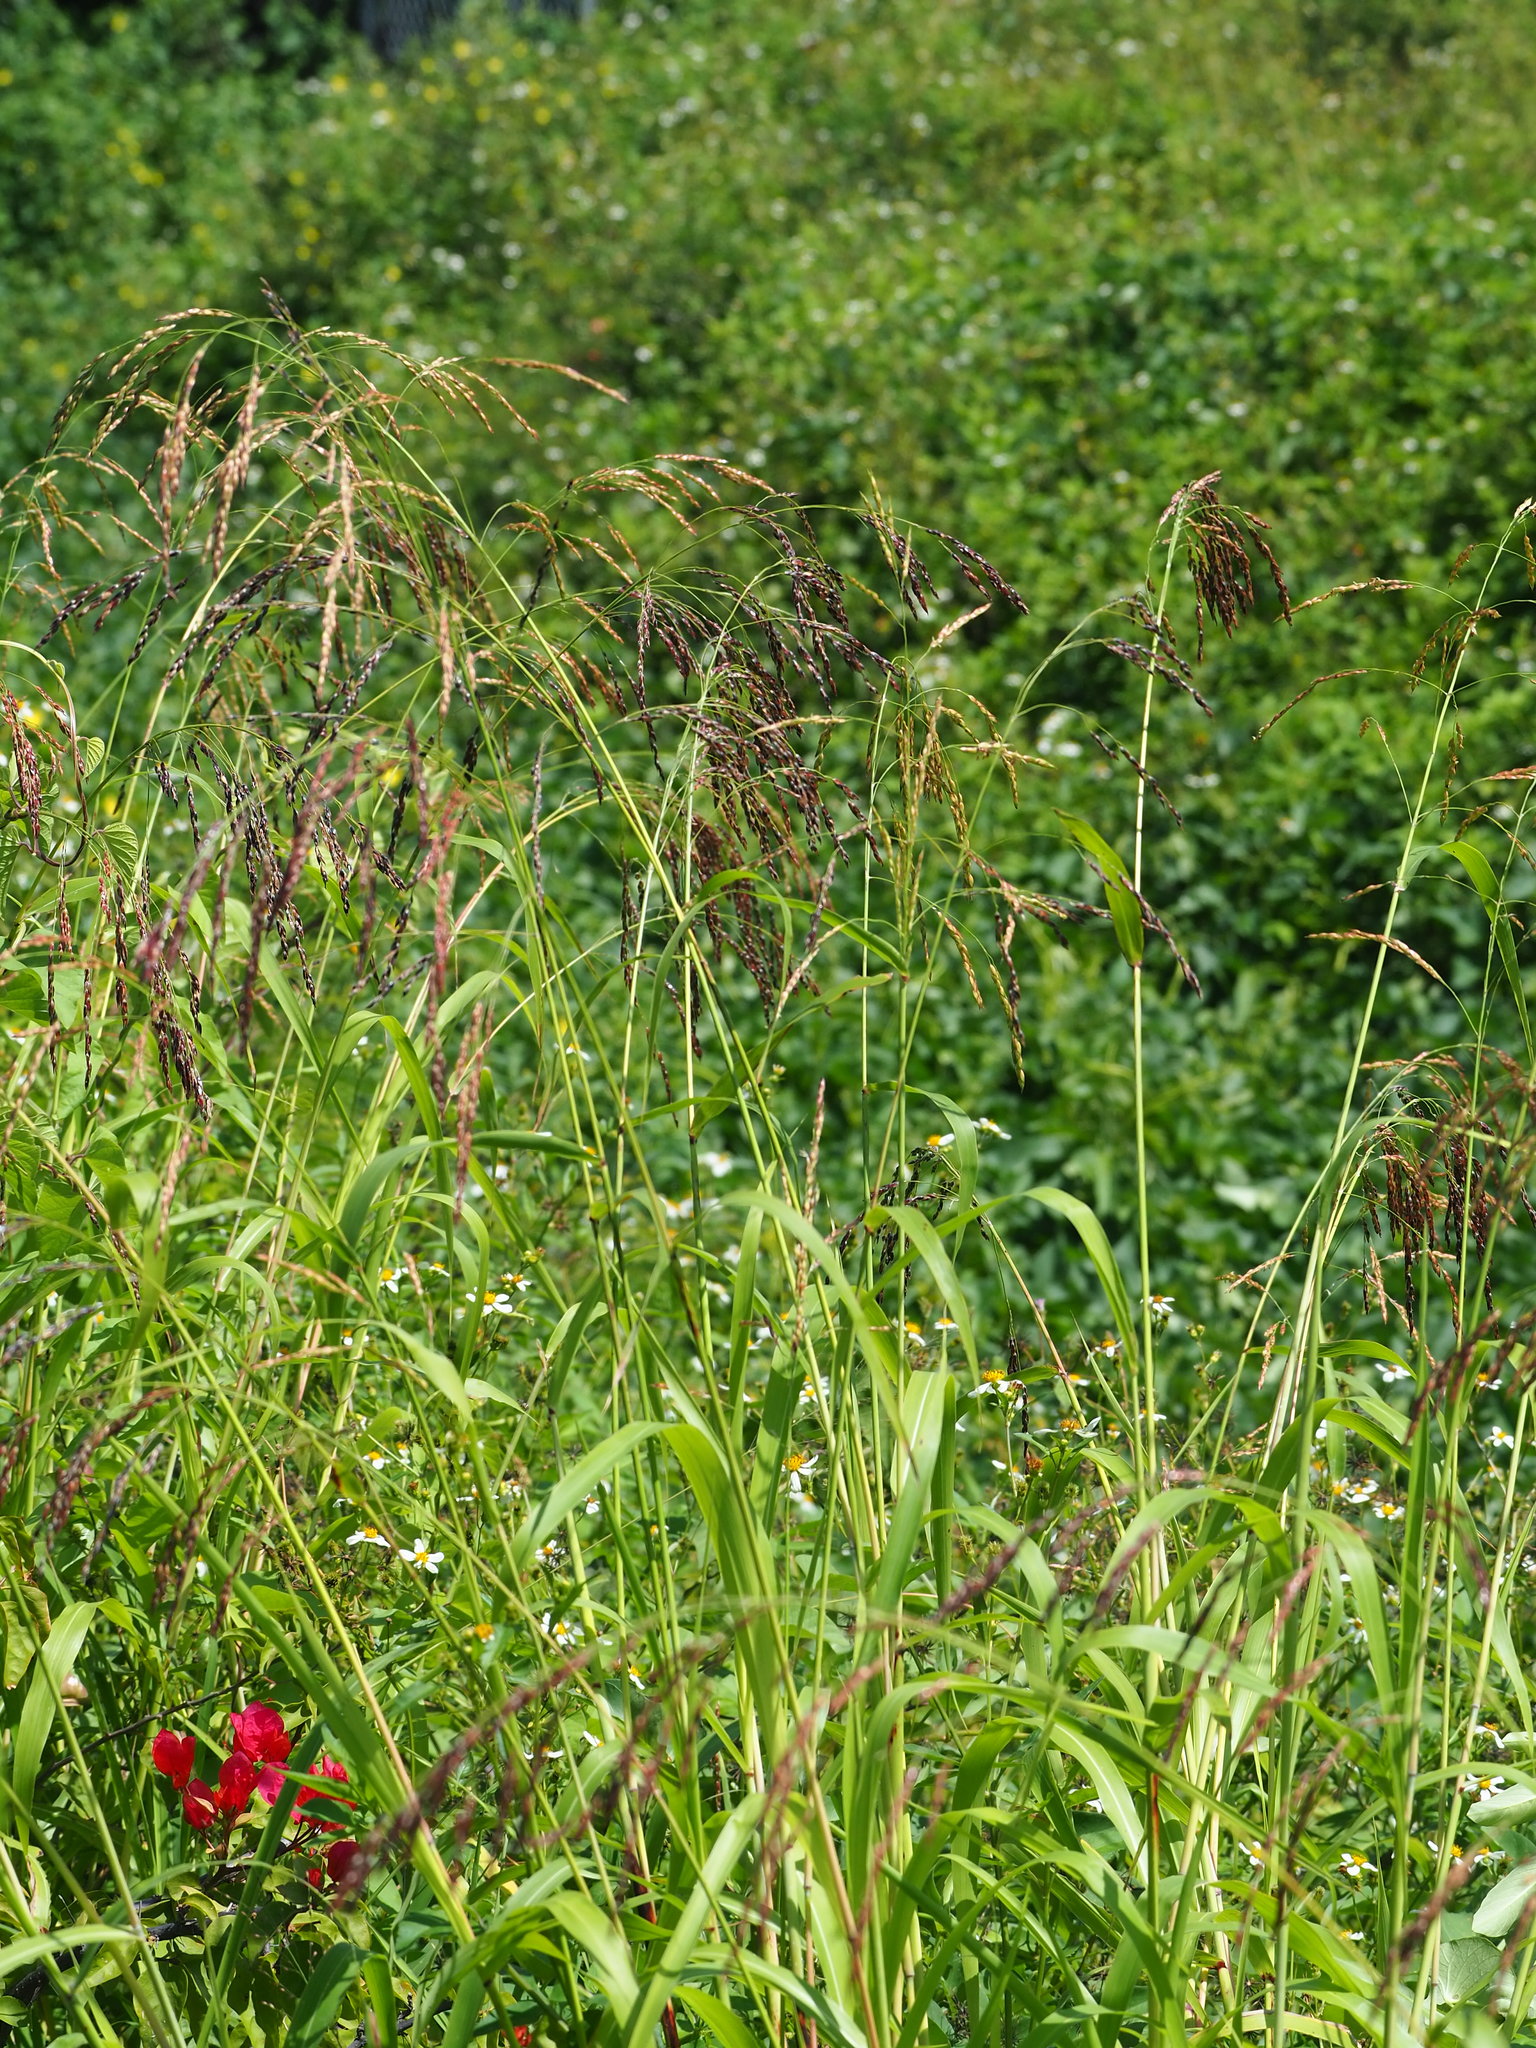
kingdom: Plantae
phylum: Tracheophyta
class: Liliopsida
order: Poales
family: Poaceae
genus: Sorghum
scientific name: Sorghum arundinaceum
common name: Sorghum
